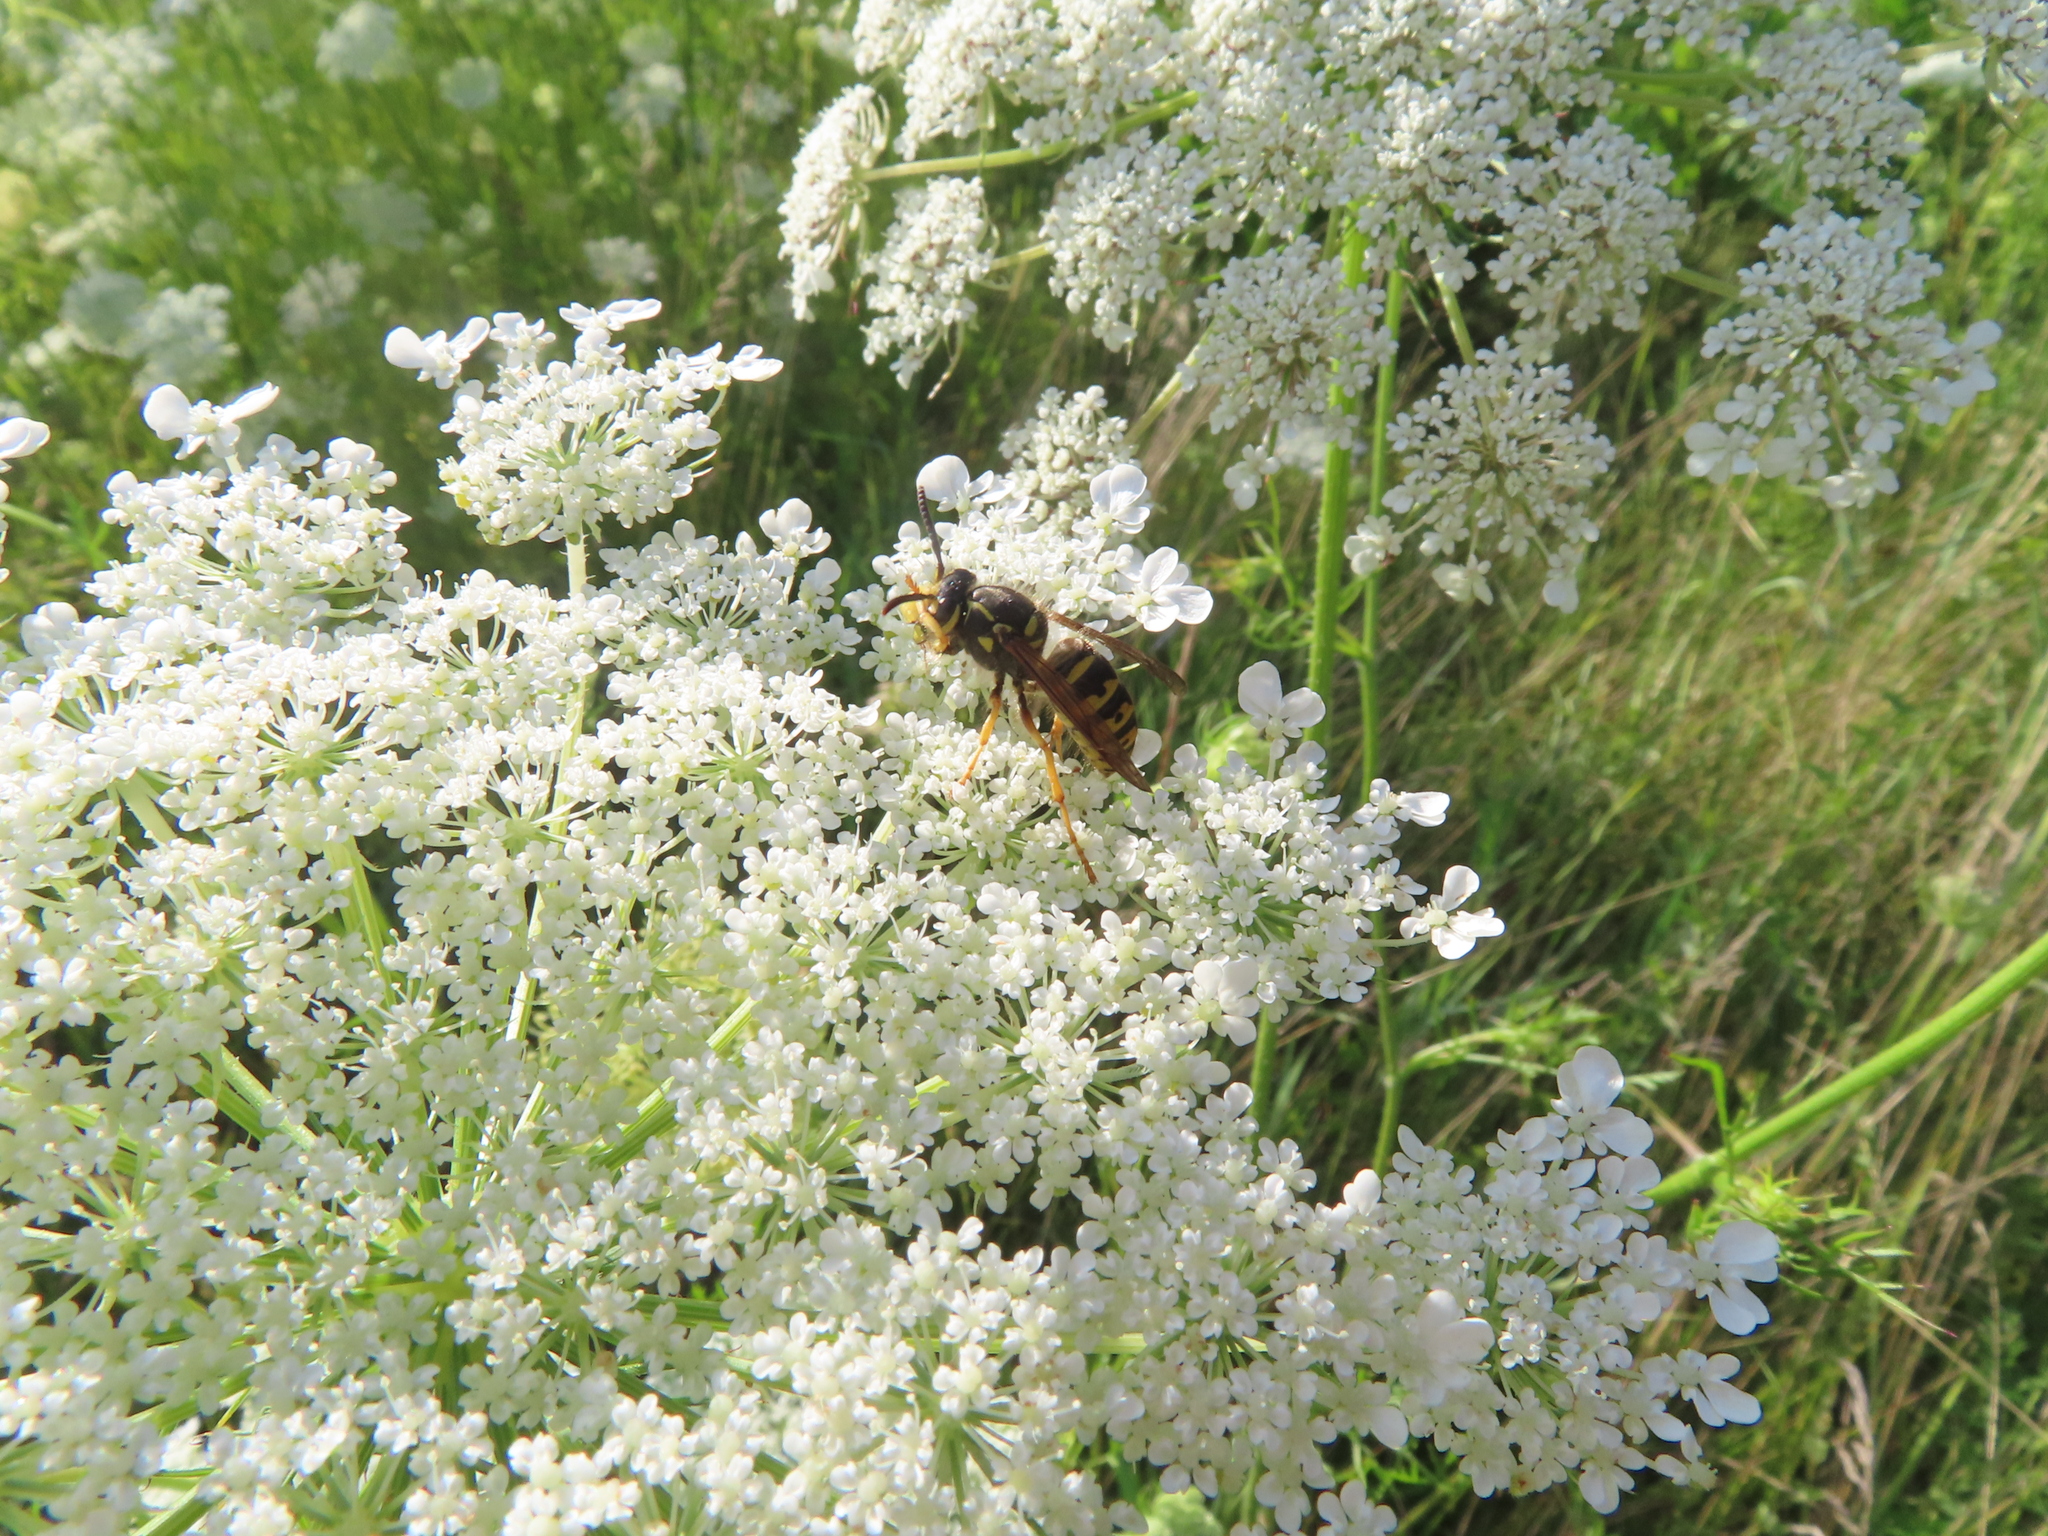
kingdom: Animalia
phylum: Arthropoda
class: Insecta
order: Hymenoptera
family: Vespidae
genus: Dolichovespula
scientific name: Dolichovespula arenaria
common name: Aerial yellowjacket
